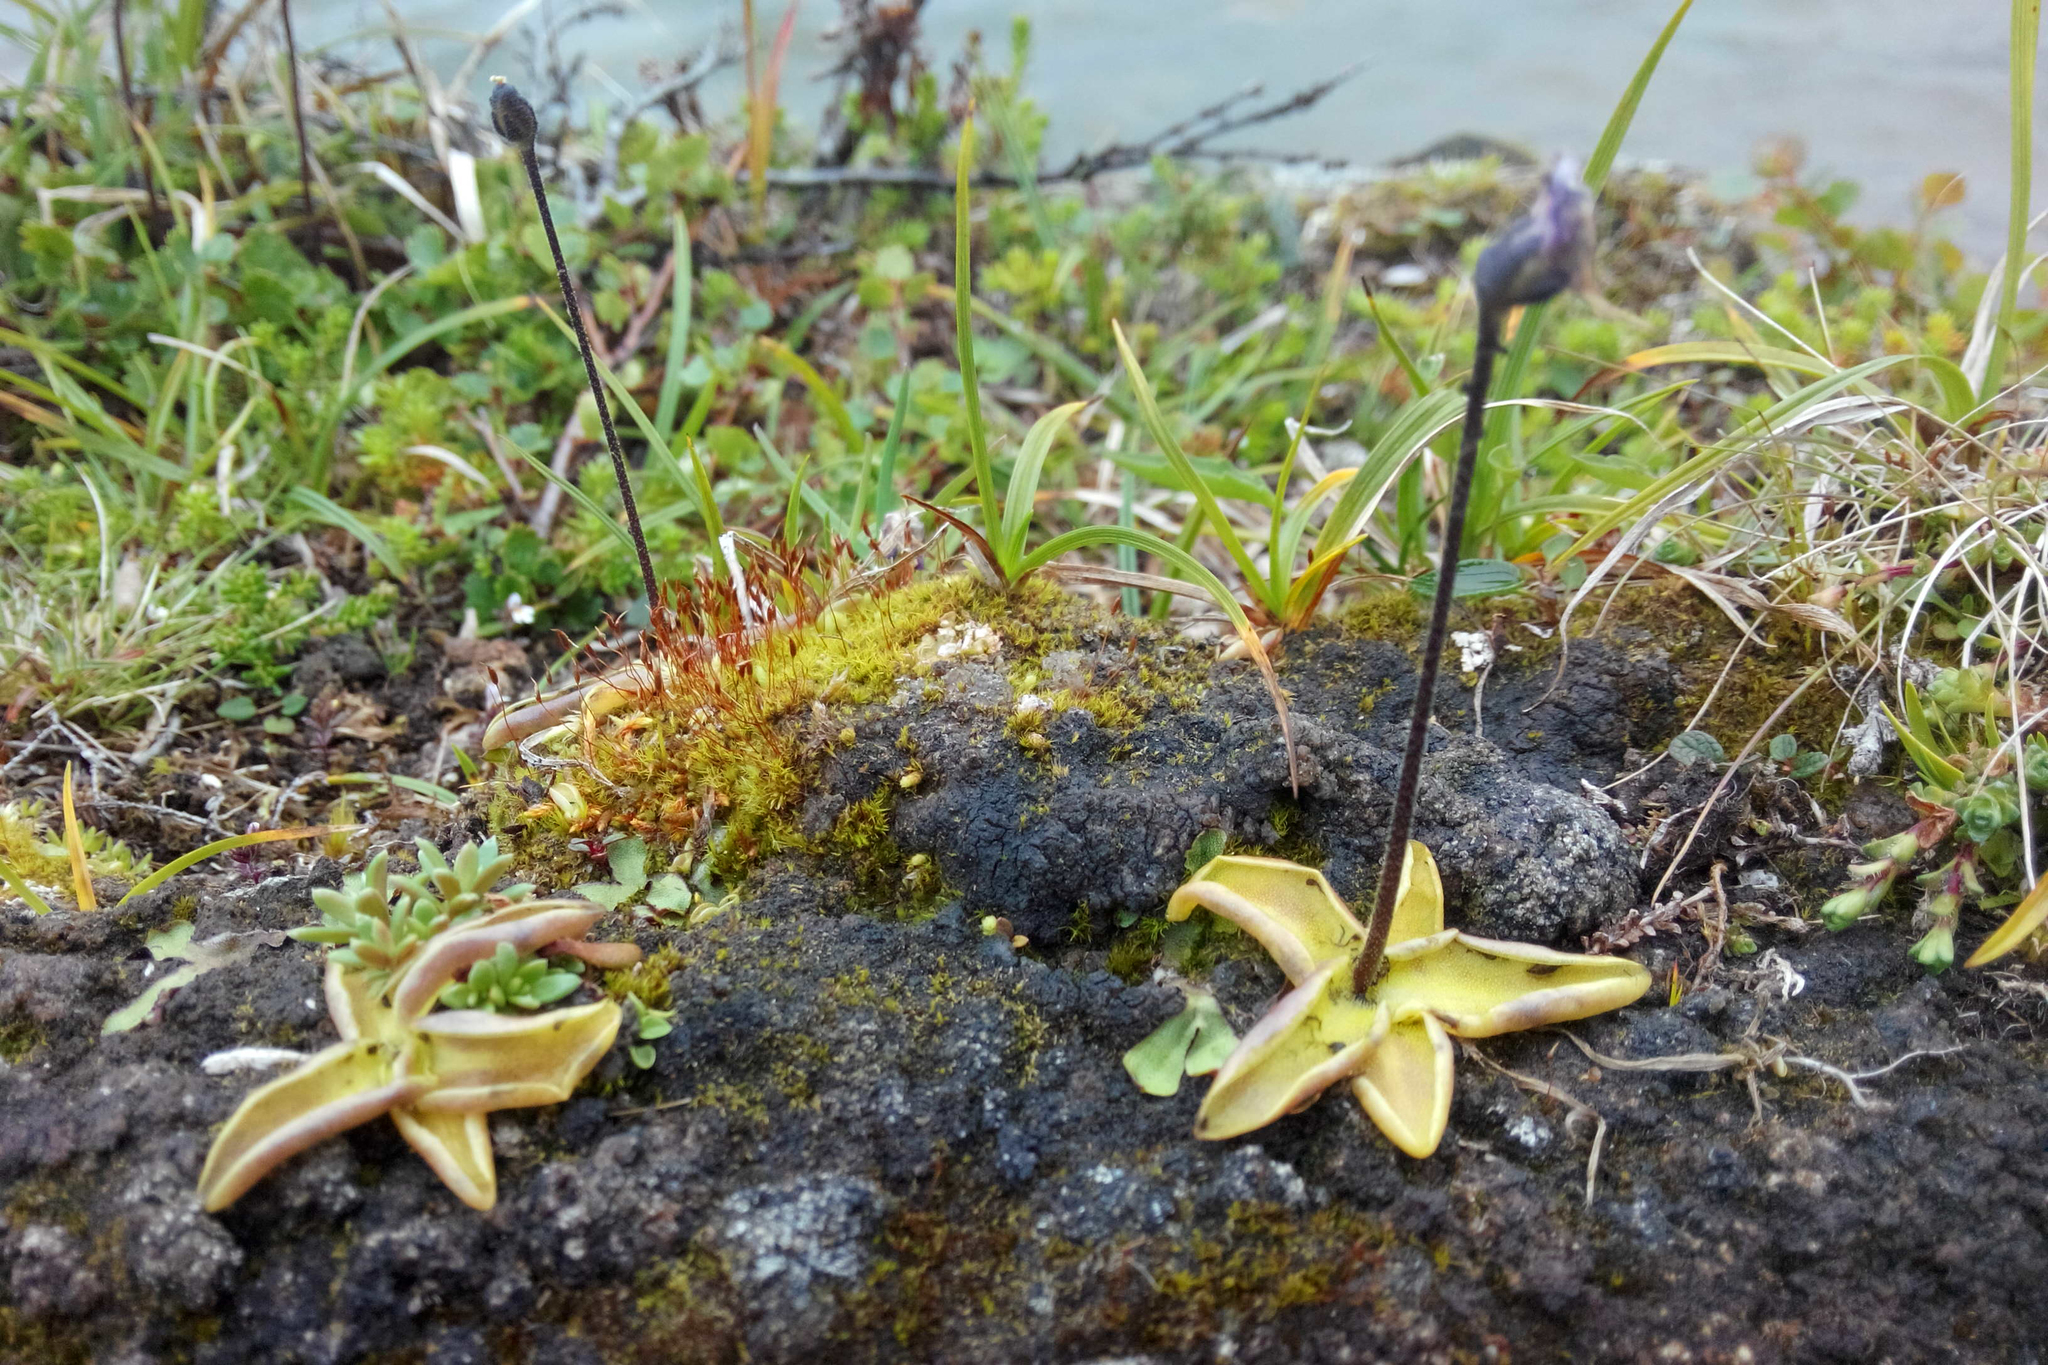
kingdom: Plantae
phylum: Tracheophyta
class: Magnoliopsida
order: Lamiales
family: Lentibulariaceae
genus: Pinguicula
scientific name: Pinguicula vulgaris
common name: Common butterwort
